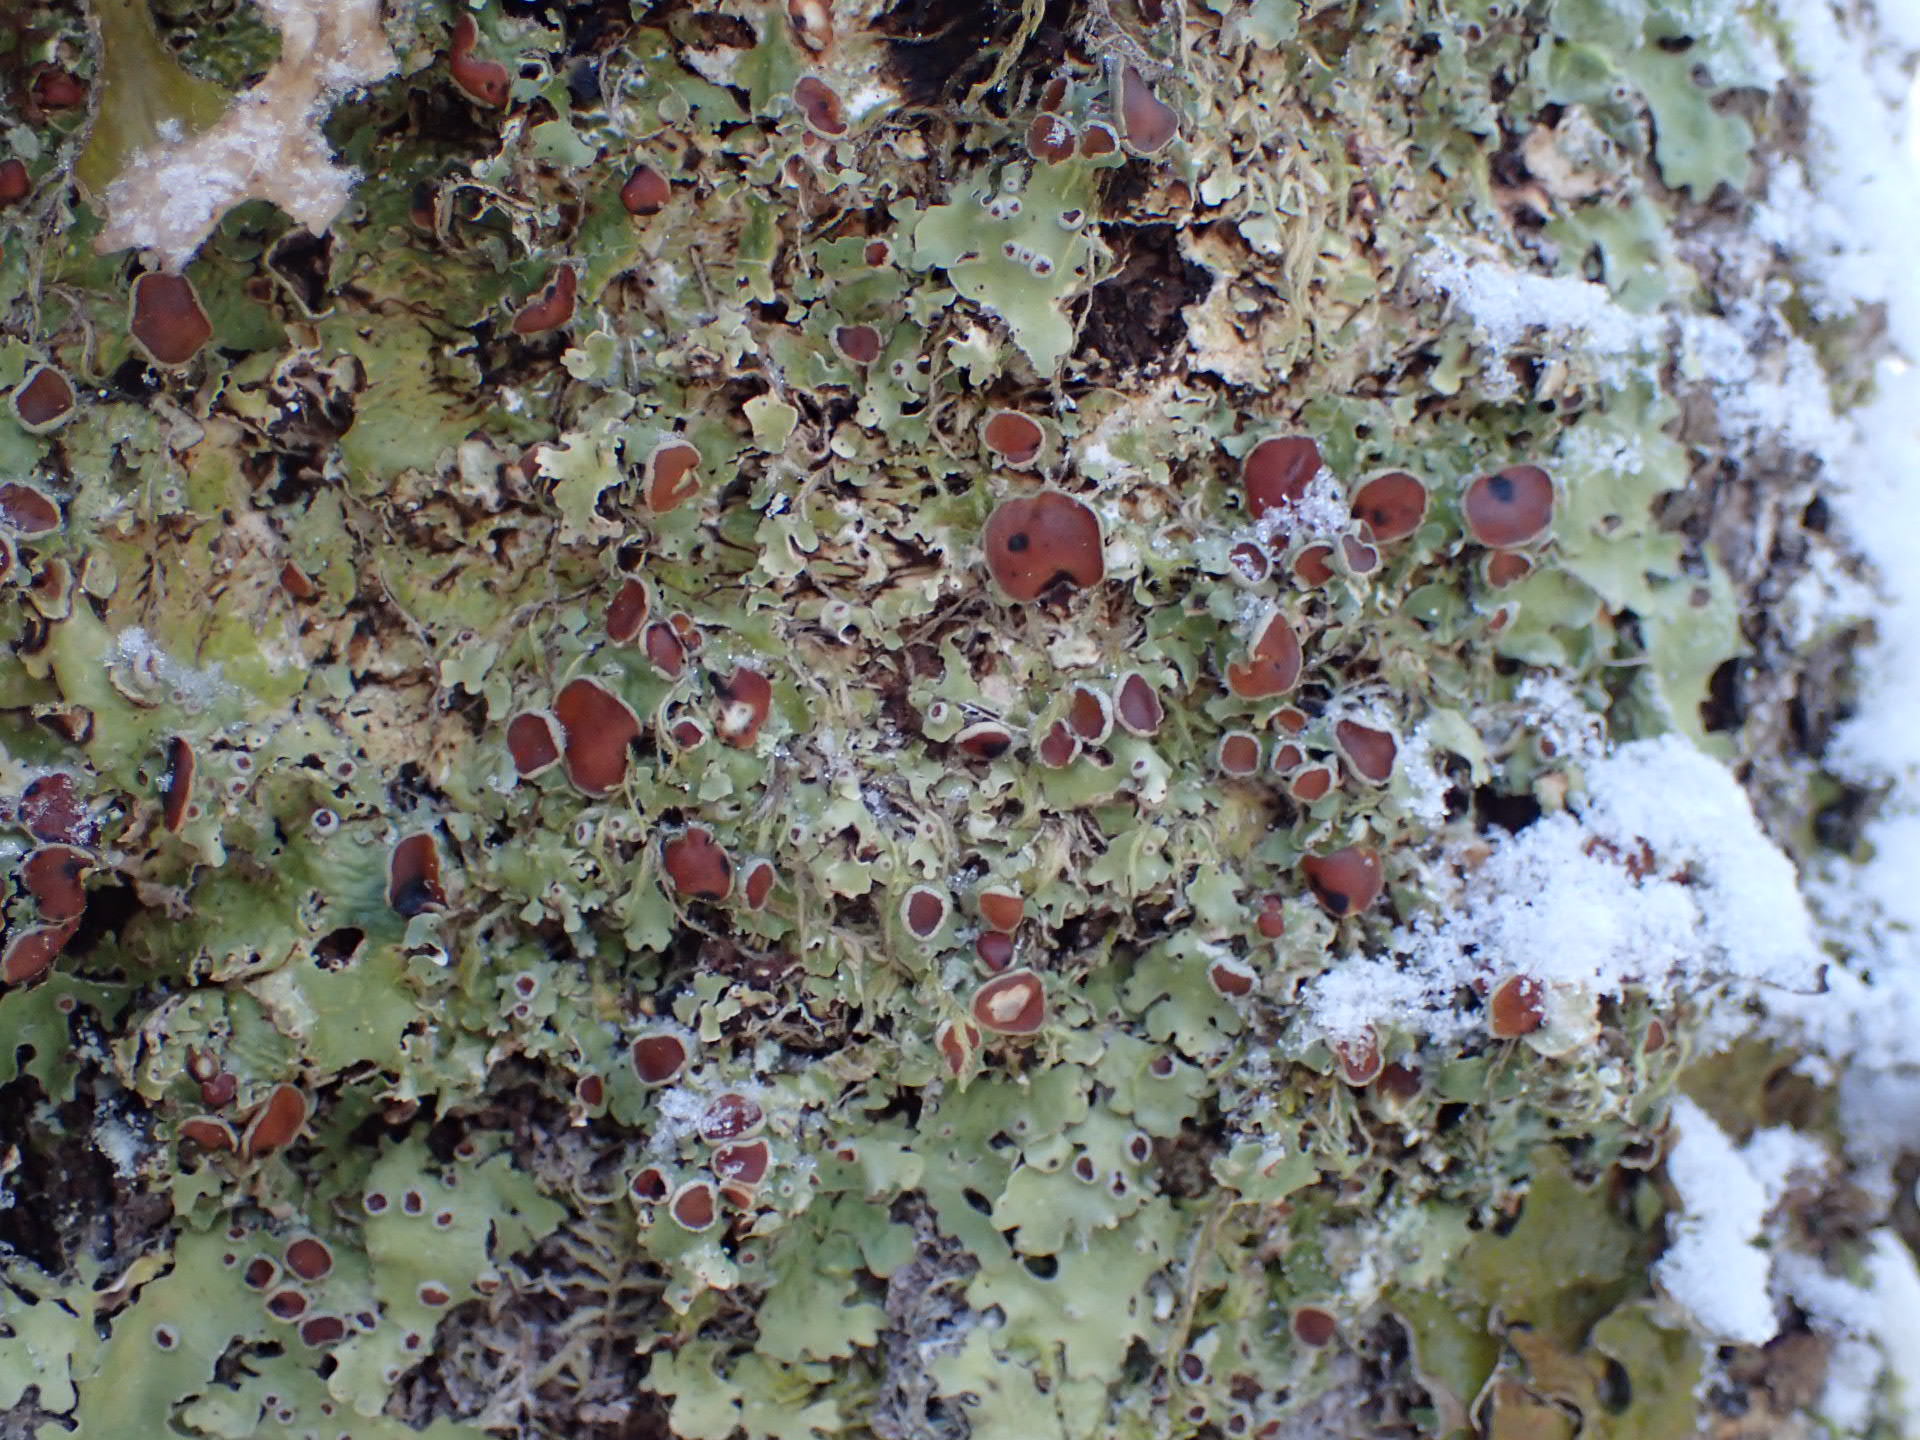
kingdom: Fungi
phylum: Ascomycota
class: Lecanoromycetes
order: Peltigerales
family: Lobariaceae
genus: Ricasolia
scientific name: Ricasolia quercizans
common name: Smooth lungwort
